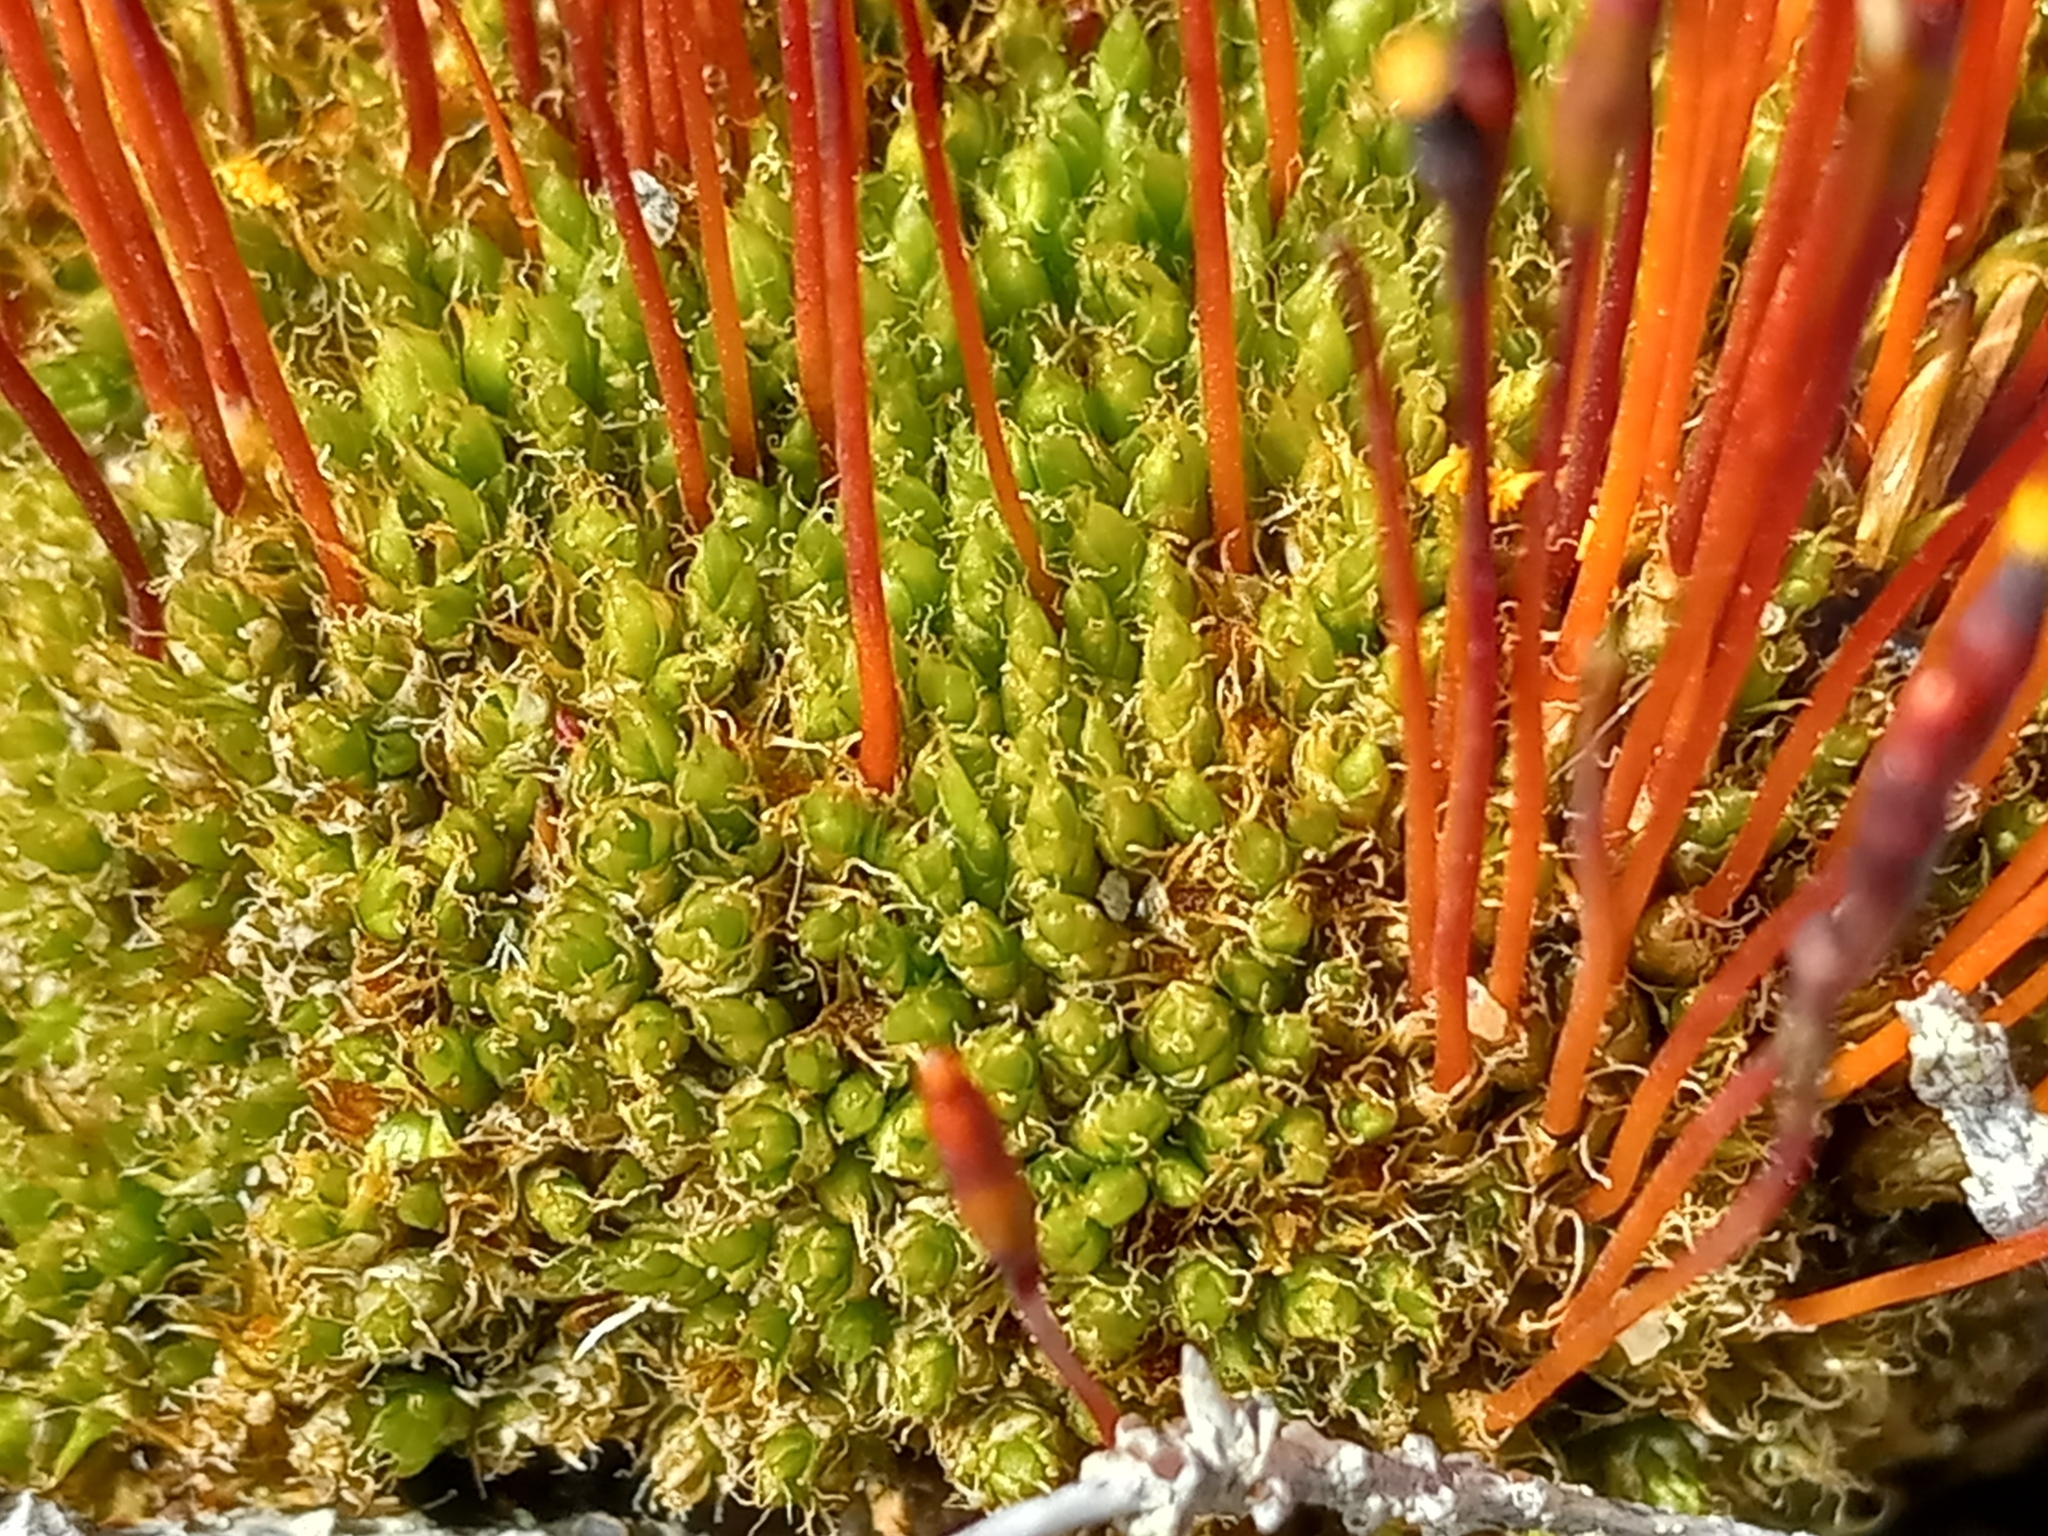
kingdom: Plantae
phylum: Bryophyta
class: Bryopsida
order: Splachnales
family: Splachnaceae
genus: Tetraplodon
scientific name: Tetraplodon mnioides
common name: Entire-leaved nitrogen moss
